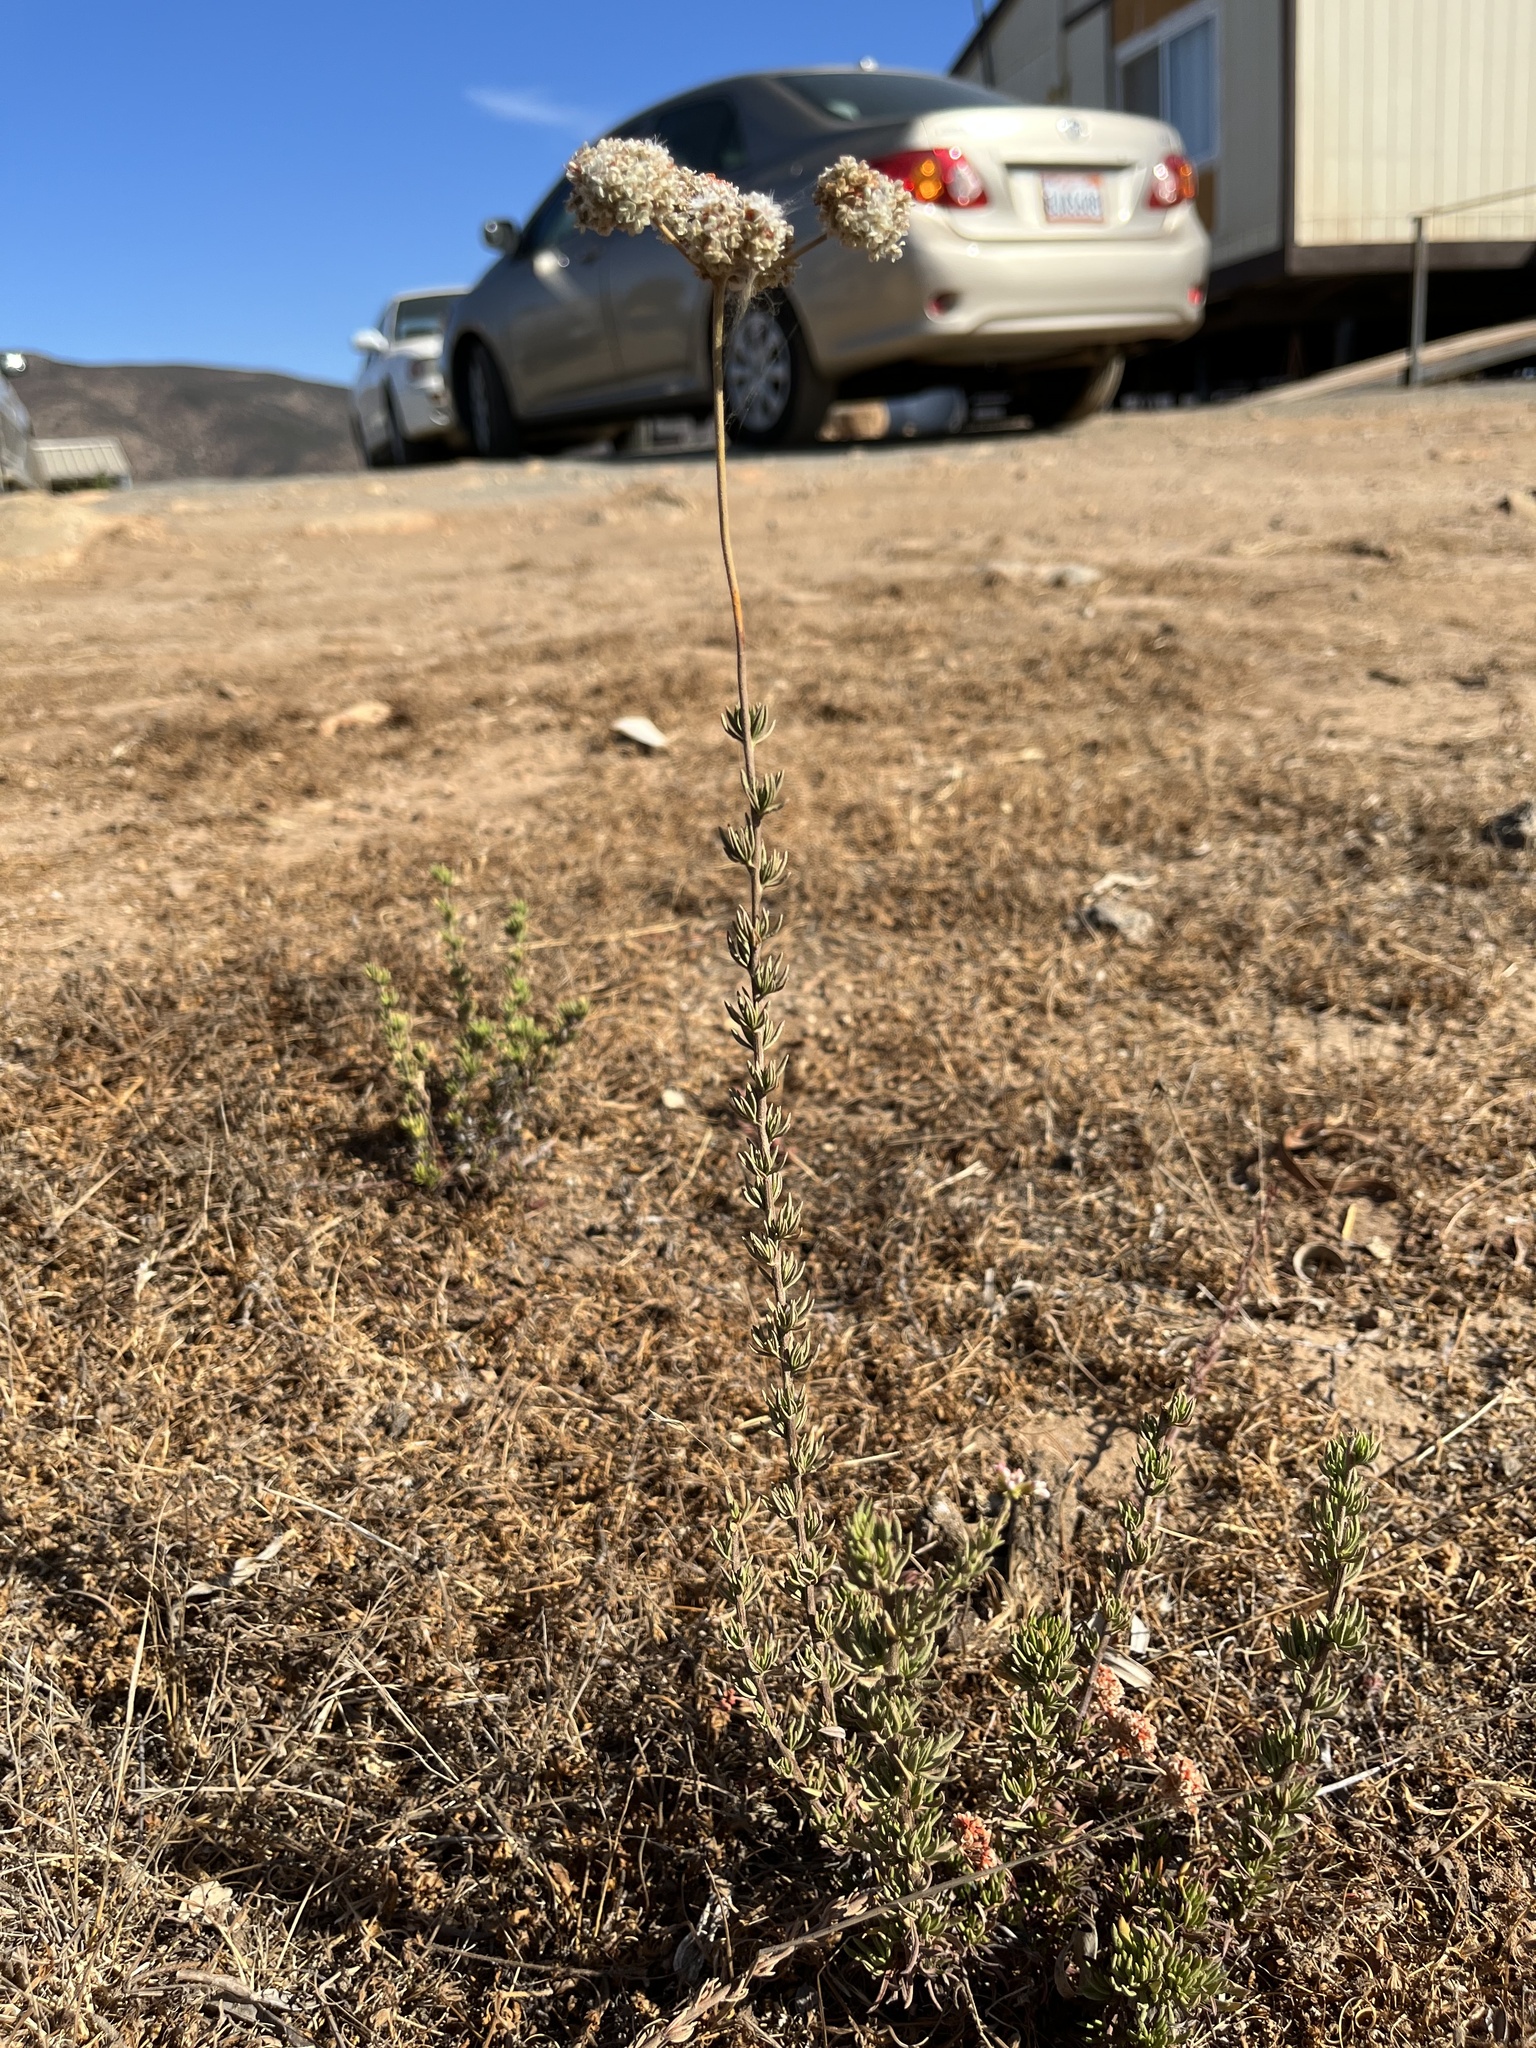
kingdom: Plantae
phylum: Tracheophyta
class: Magnoliopsida
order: Caryophyllales
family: Polygonaceae
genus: Eriogonum
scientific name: Eriogonum fasciculatum
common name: California wild buckwheat
